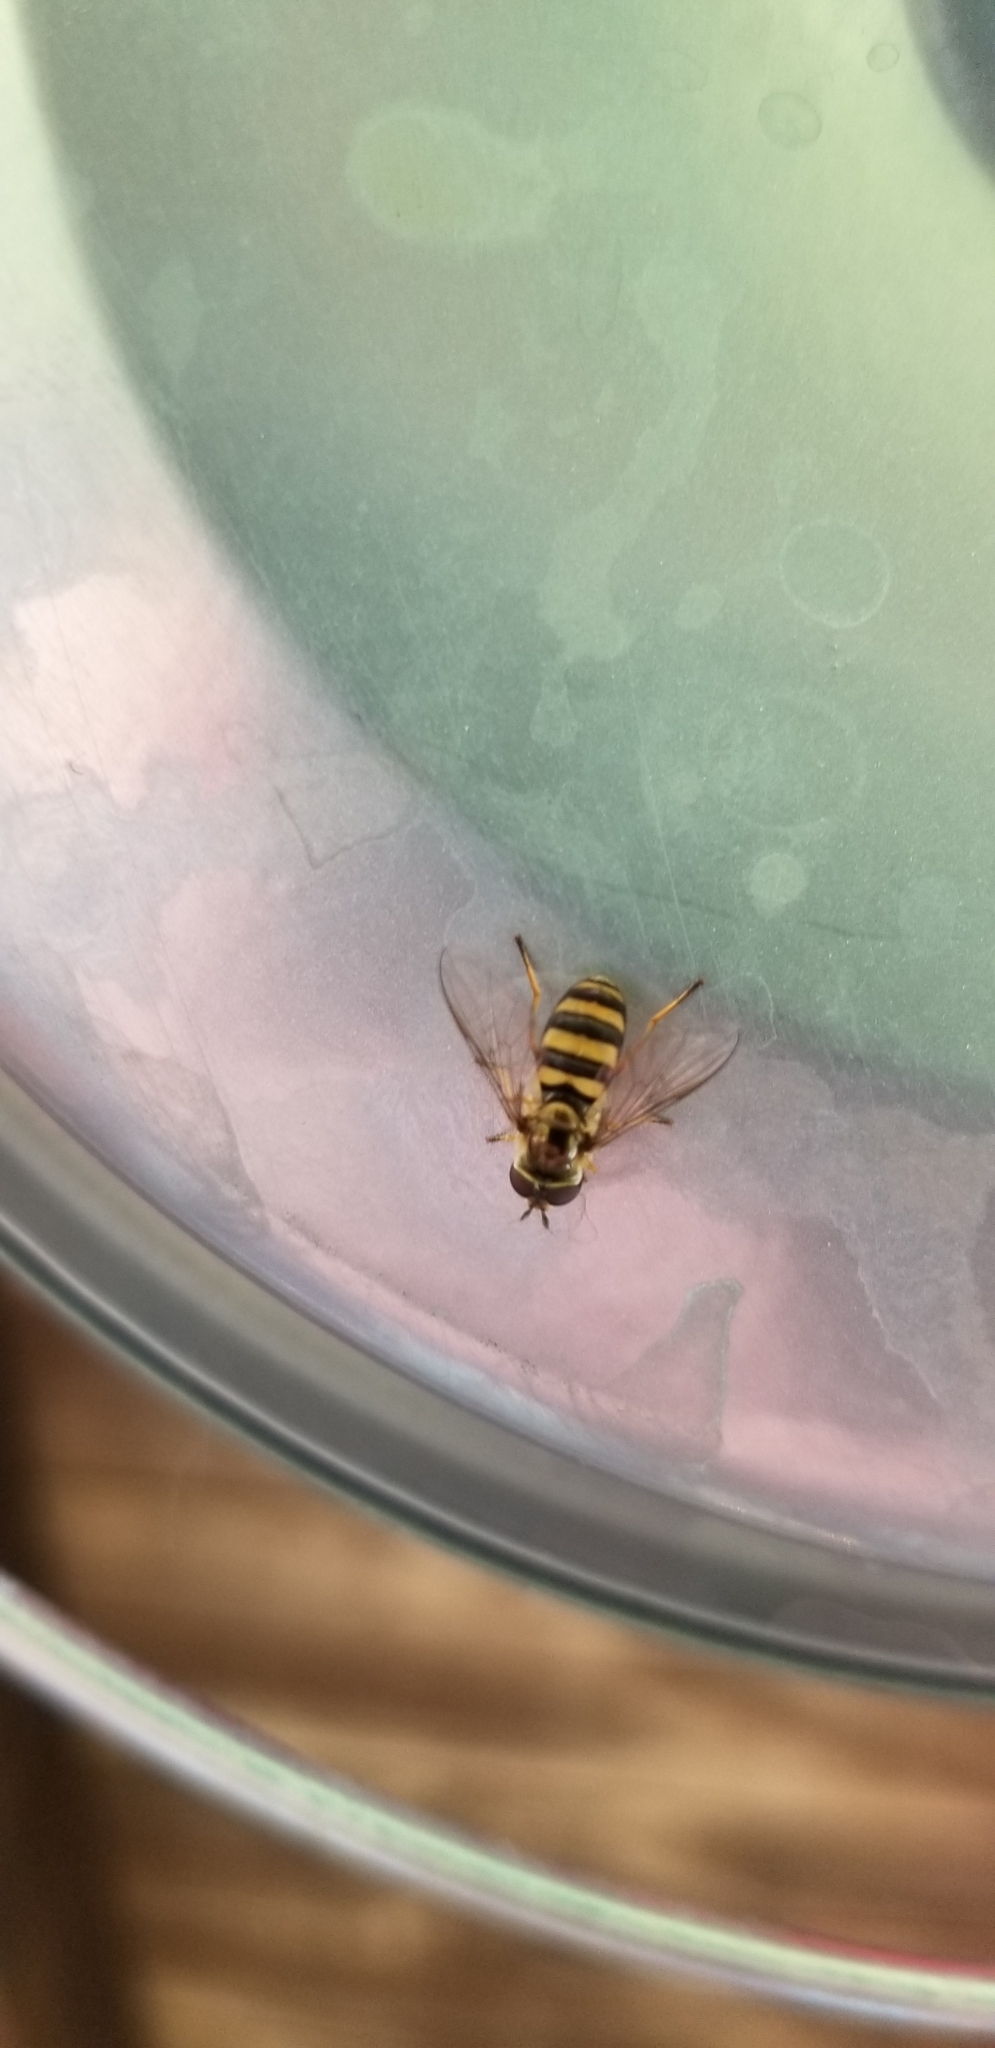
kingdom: Animalia
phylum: Arthropoda
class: Insecta
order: Diptera
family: Syrphidae
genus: Eupeodes
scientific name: Eupeodes
